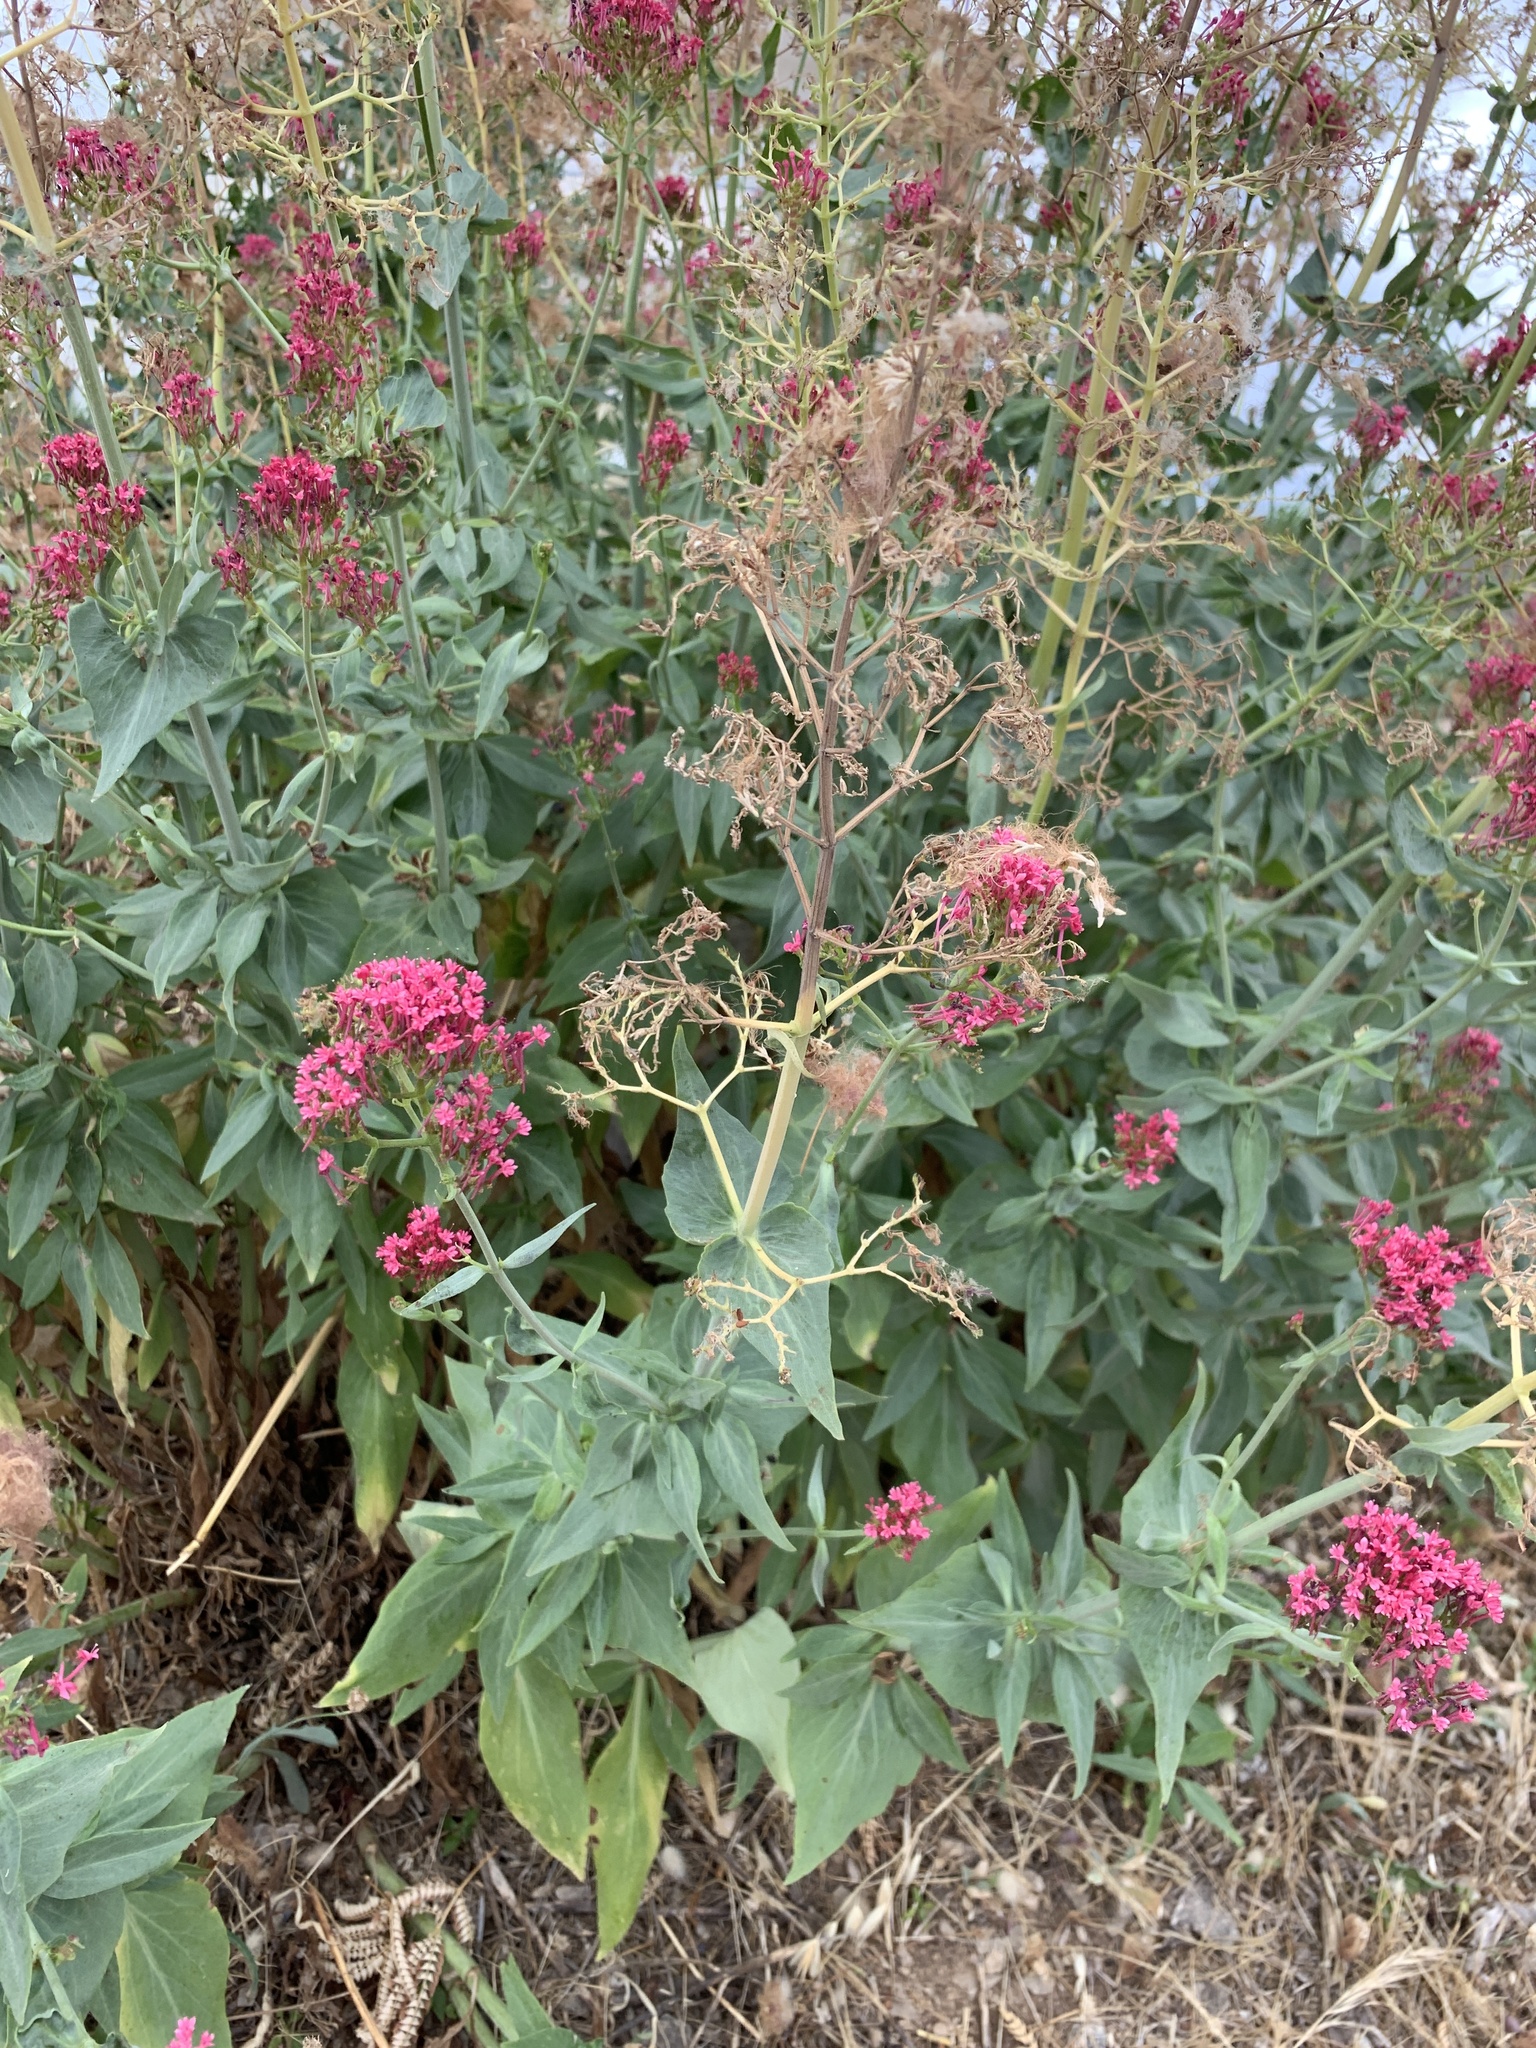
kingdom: Plantae
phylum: Tracheophyta
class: Magnoliopsida
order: Dipsacales
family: Caprifoliaceae
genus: Centranthus
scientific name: Centranthus ruber
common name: Red valerian
